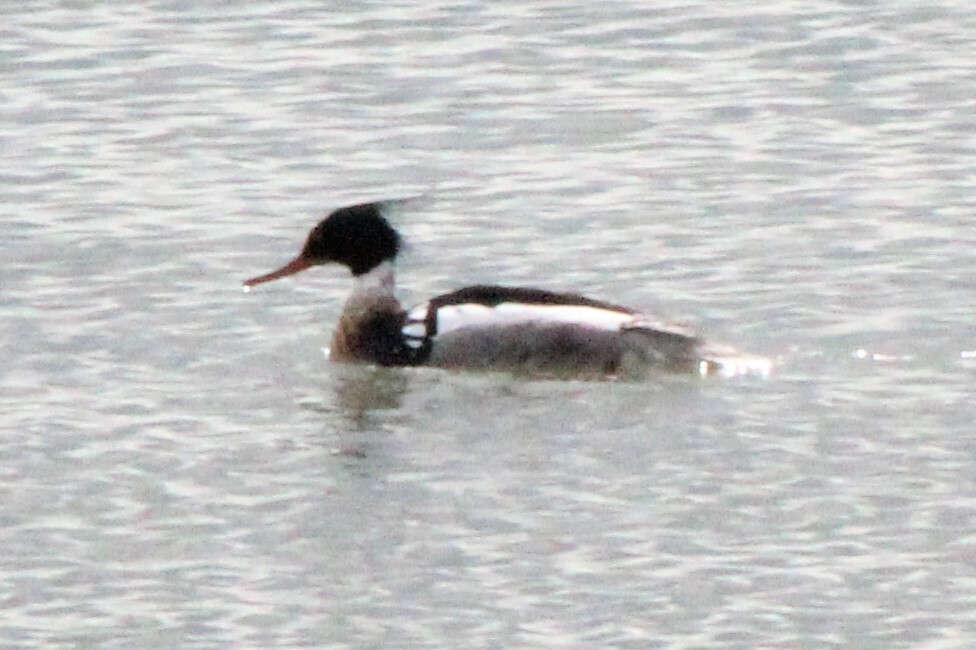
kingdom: Animalia
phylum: Chordata
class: Aves
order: Anseriformes
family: Anatidae
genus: Mergus
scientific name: Mergus serrator
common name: Red-breasted merganser
